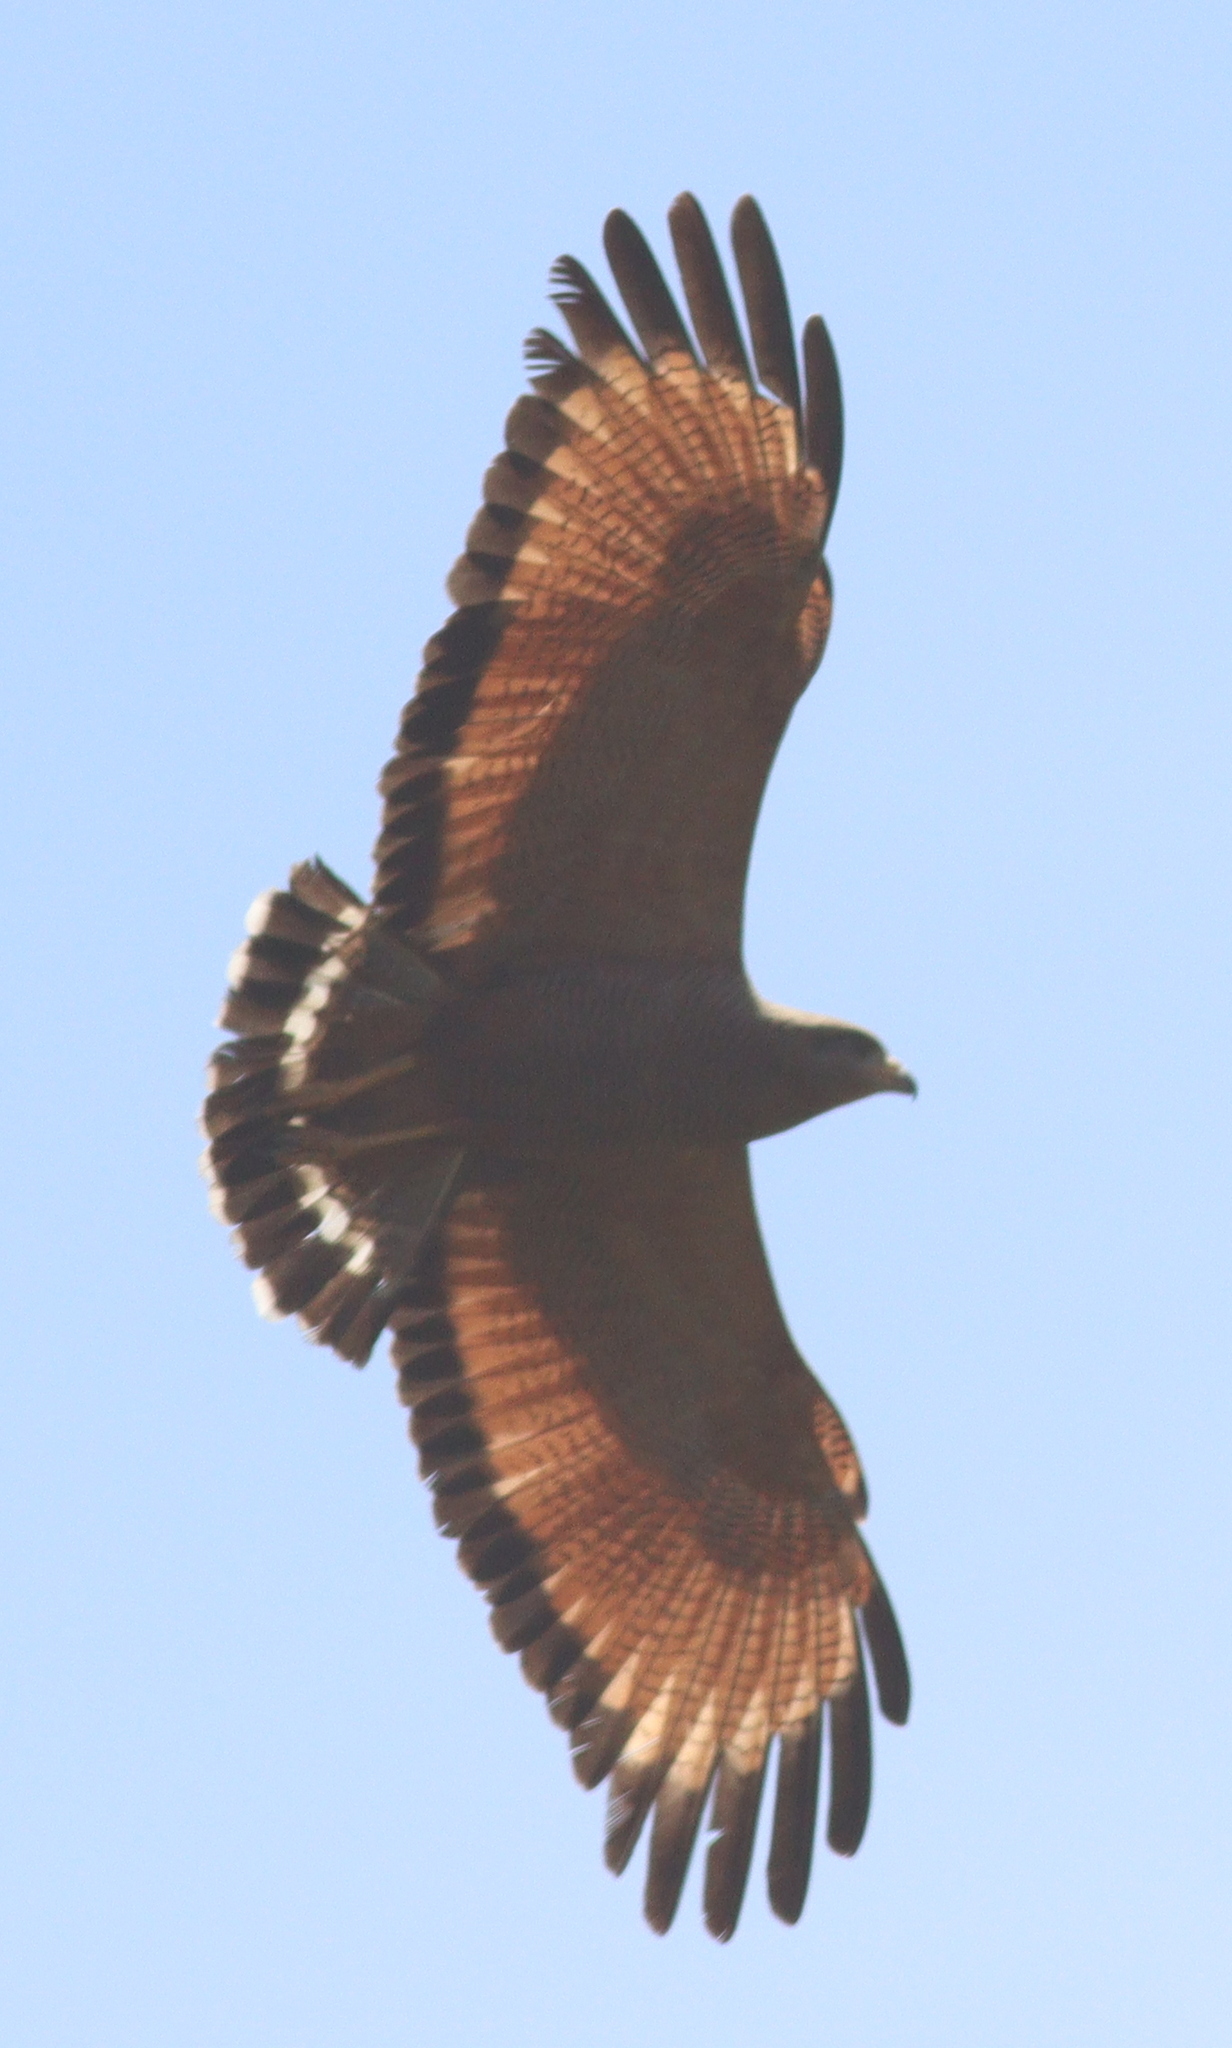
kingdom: Animalia
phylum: Chordata
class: Aves
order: Accipitriformes
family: Accipitridae
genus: Buteogallus
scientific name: Buteogallus meridionalis
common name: Savanna hawk
